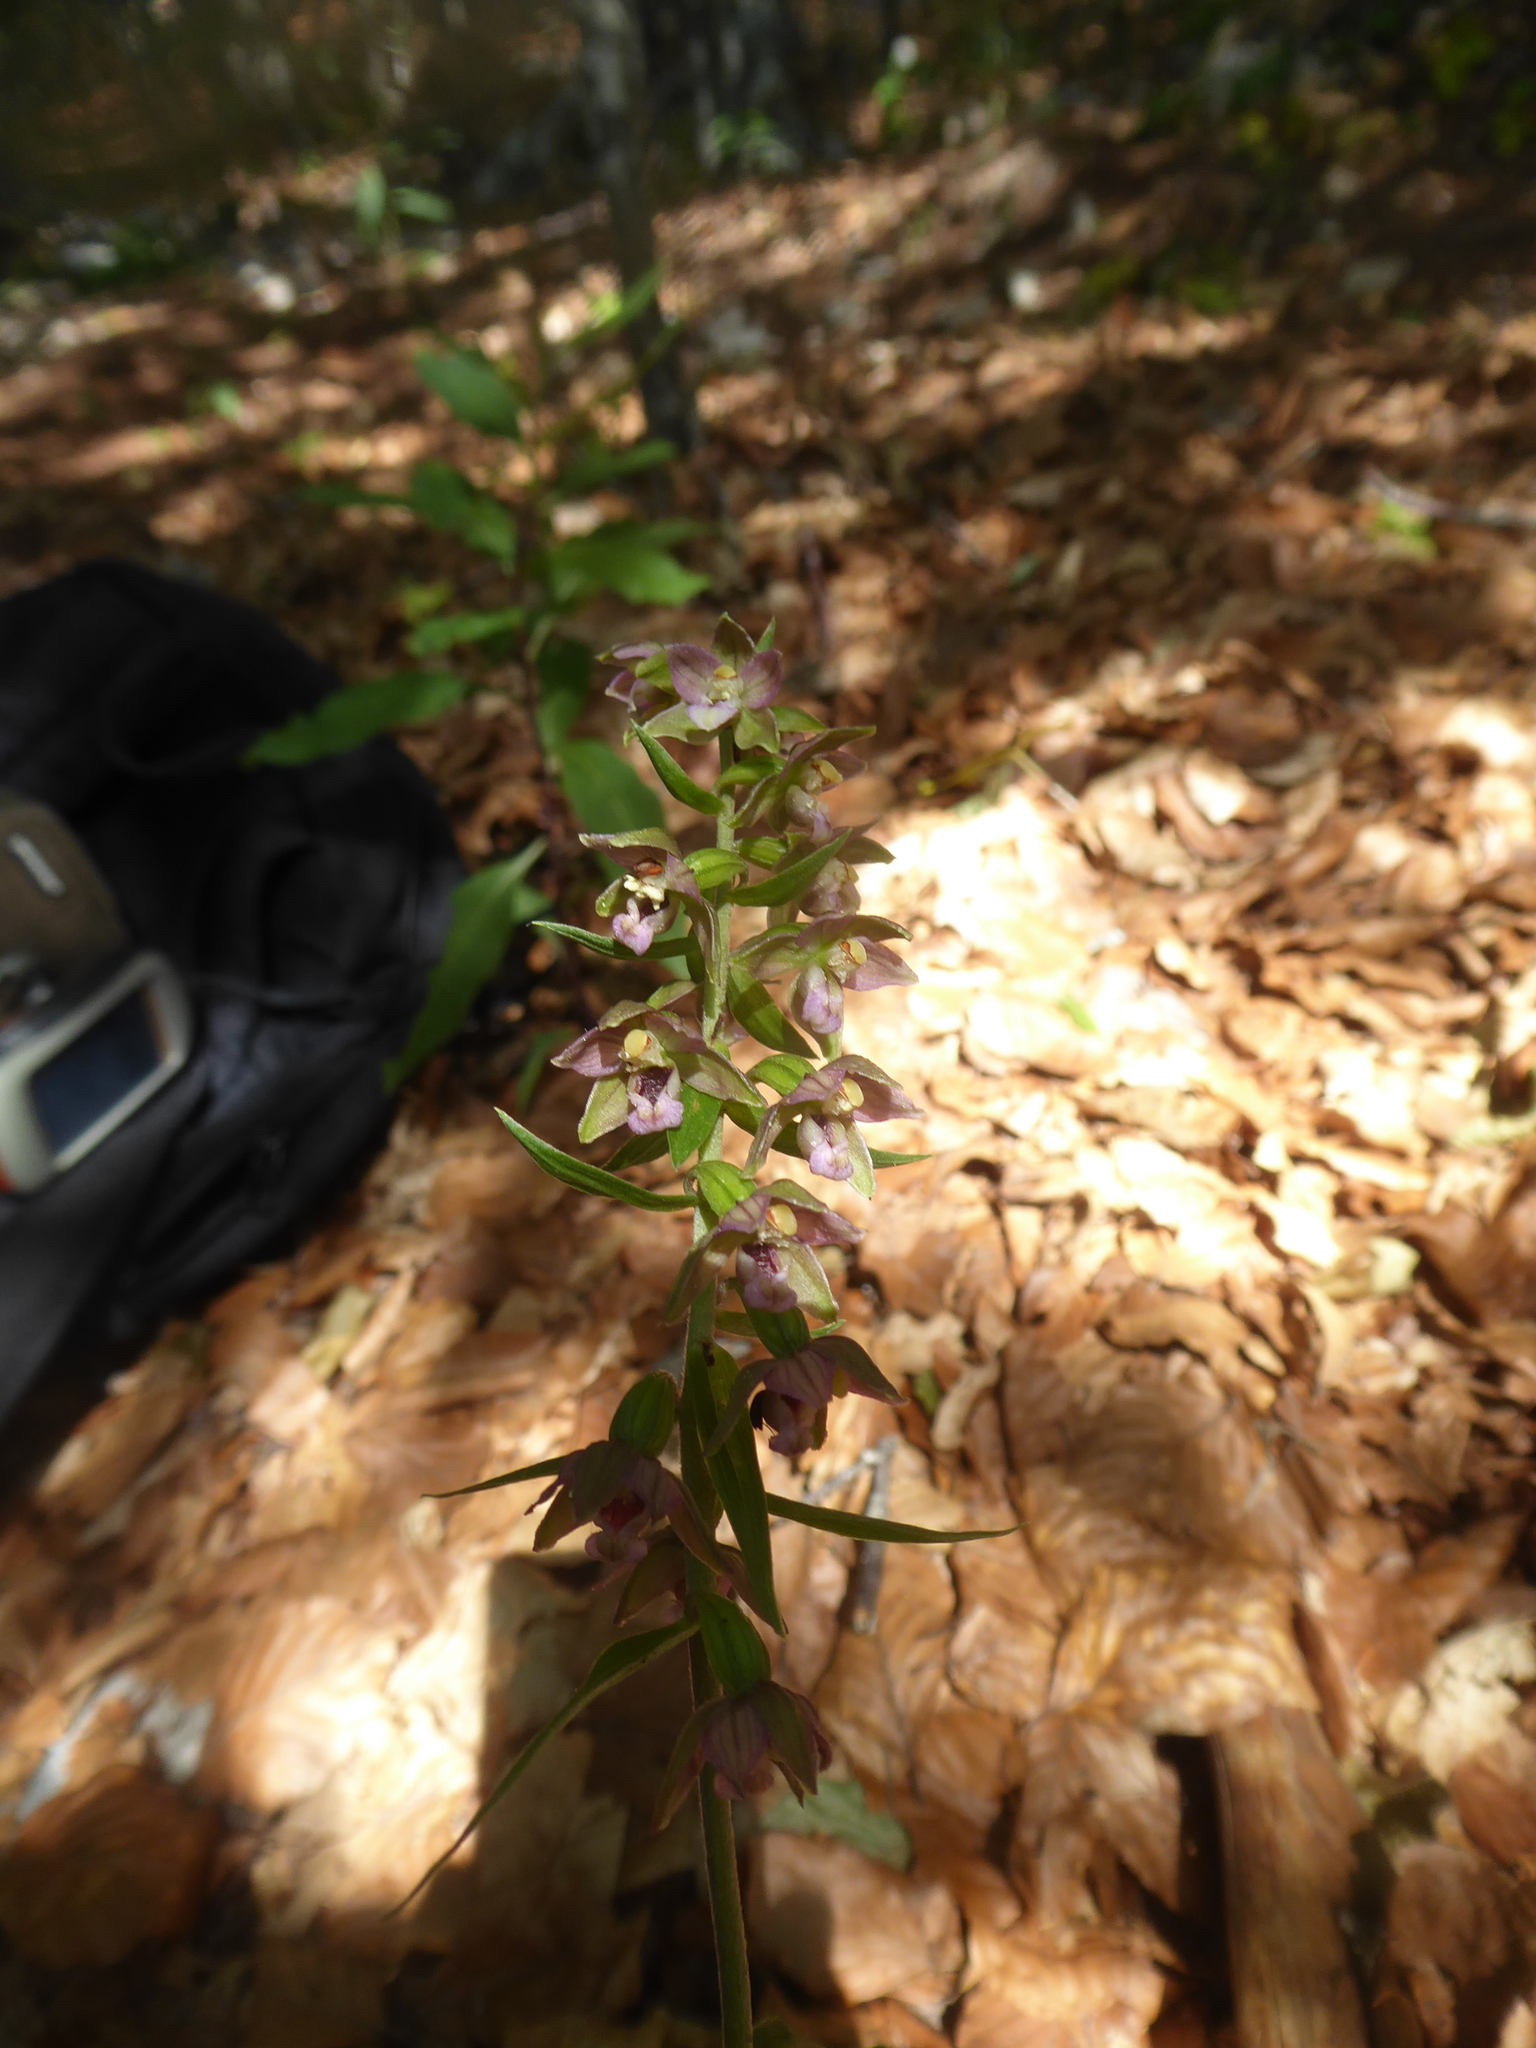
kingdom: Plantae
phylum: Tracheophyta
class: Liliopsida
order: Asparagales
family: Orchidaceae
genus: Epipactis
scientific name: Epipactis helleborine
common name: Broad-leaved helleborine
